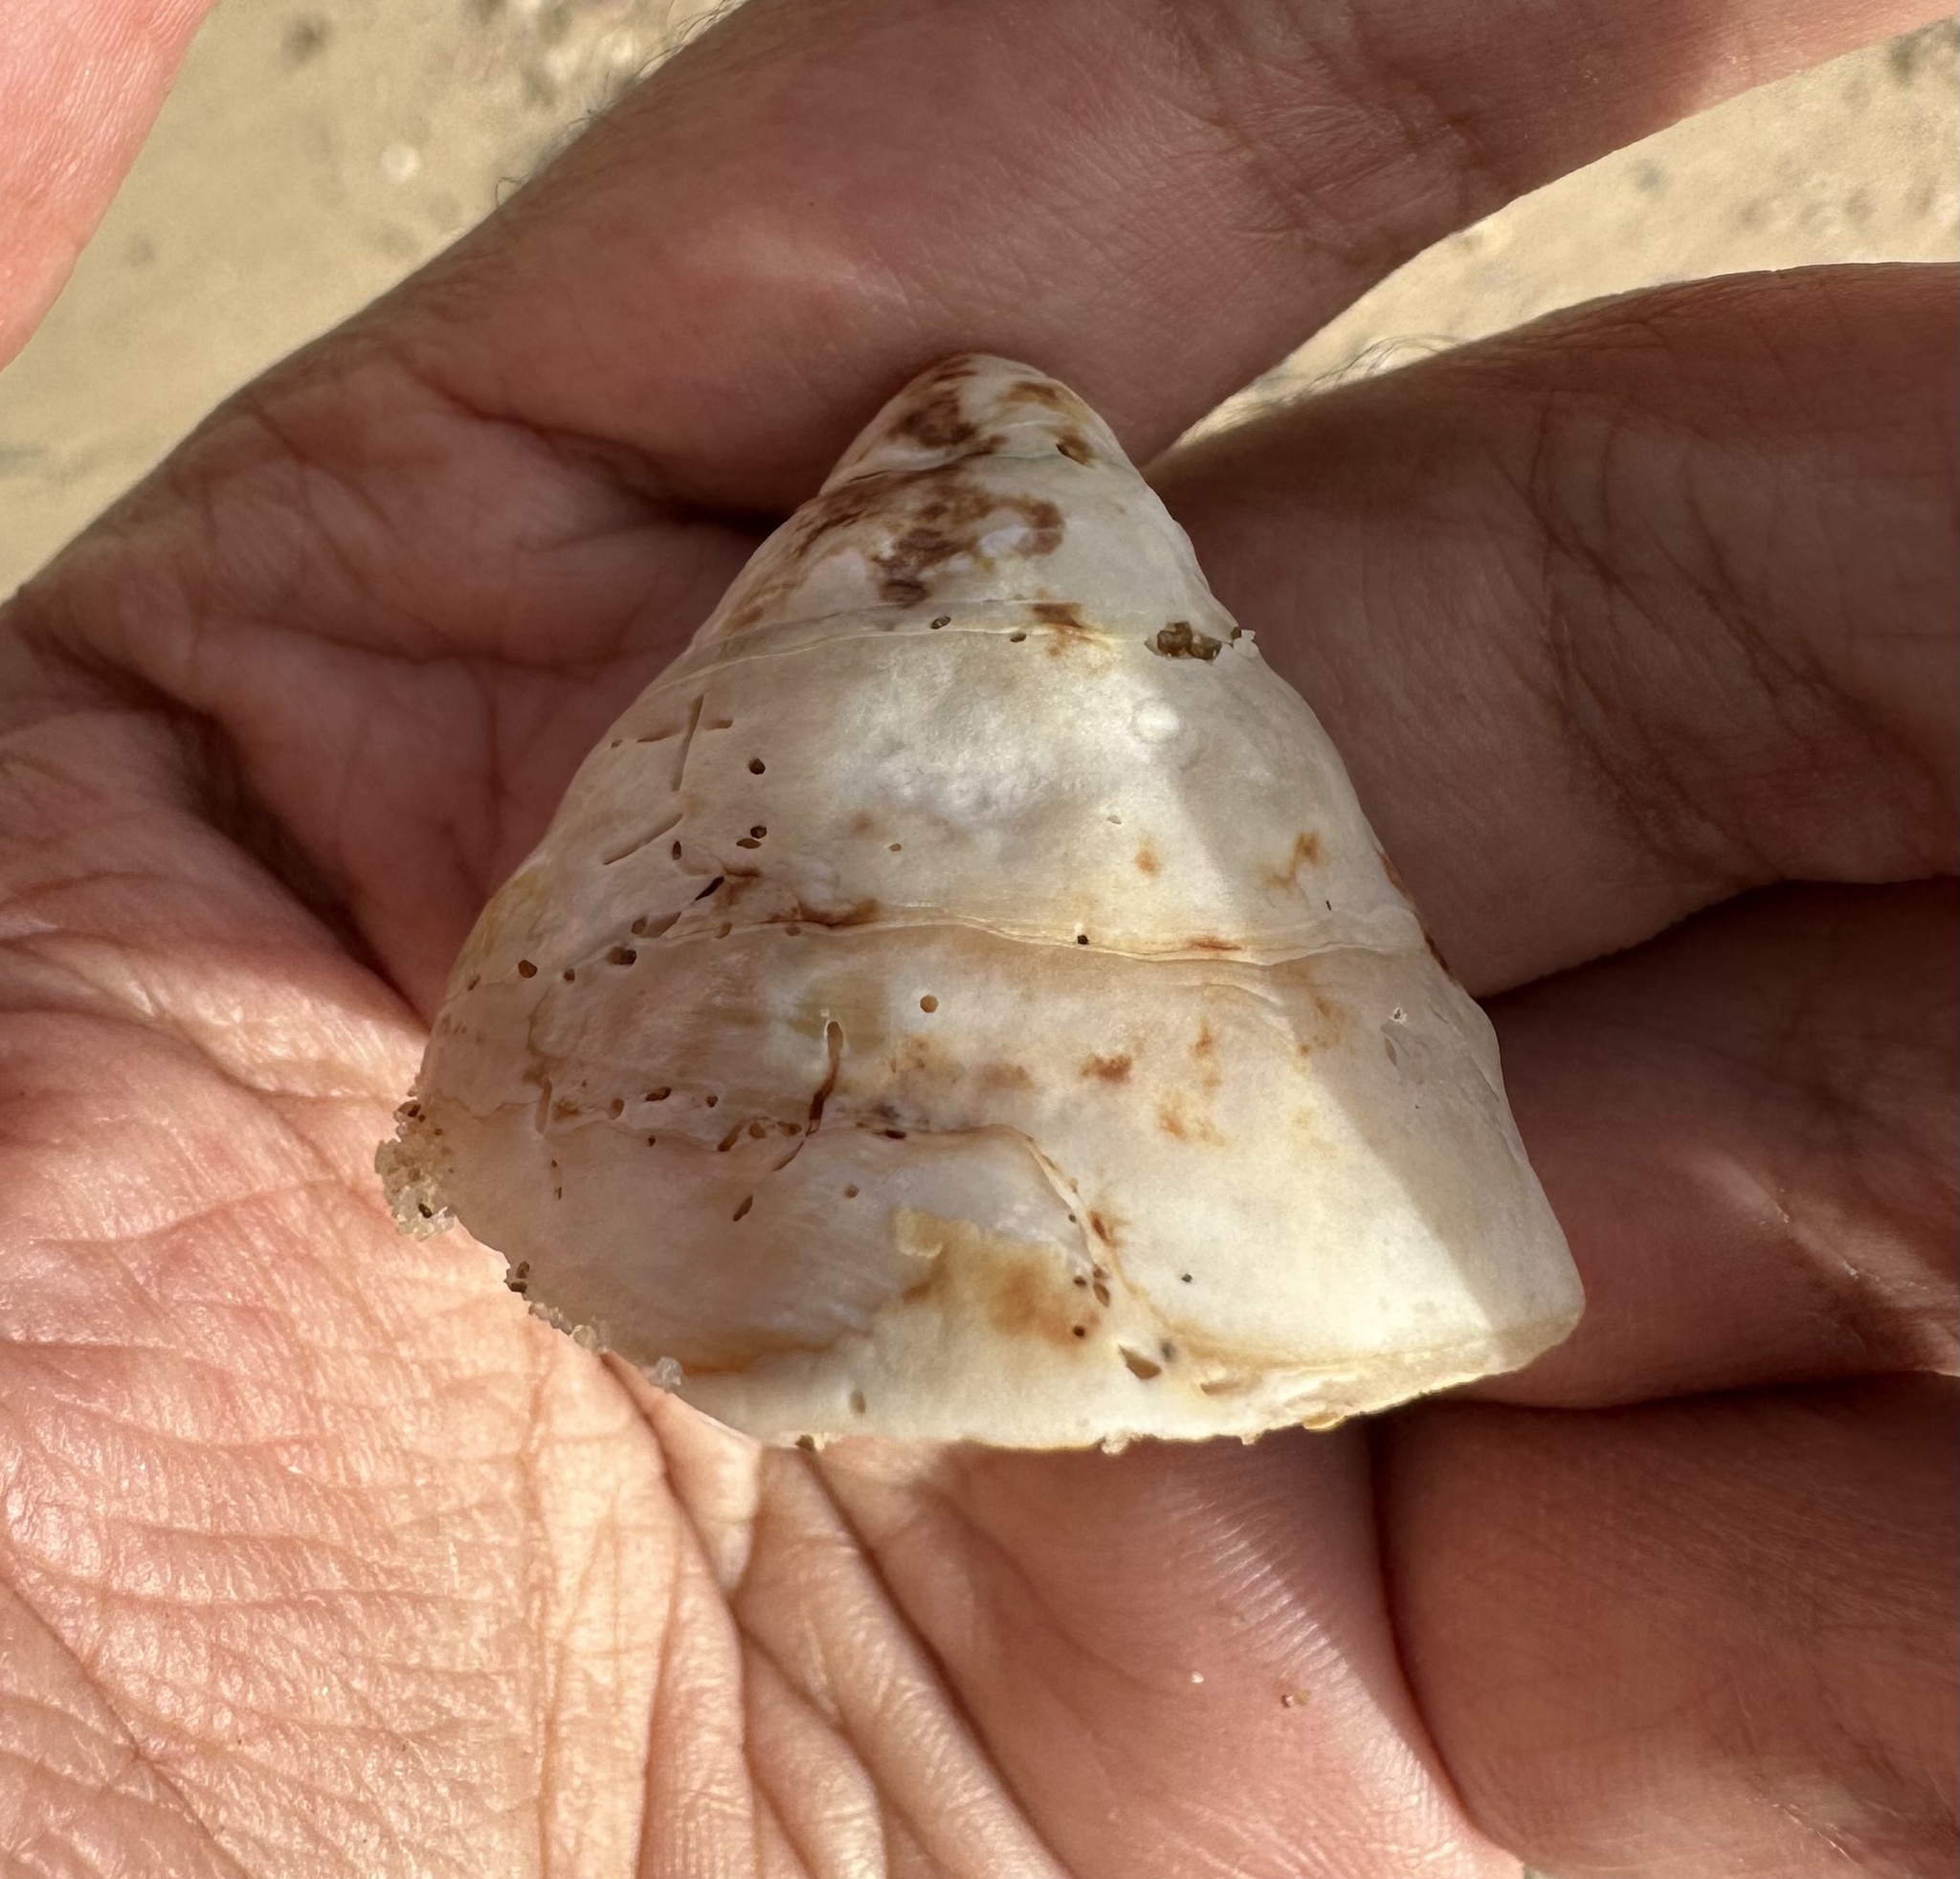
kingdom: Animalia
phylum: Mollusca
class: Gastropoda
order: Trochida
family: Turbinidae
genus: Astralium
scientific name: Astralium tentoriiforme
